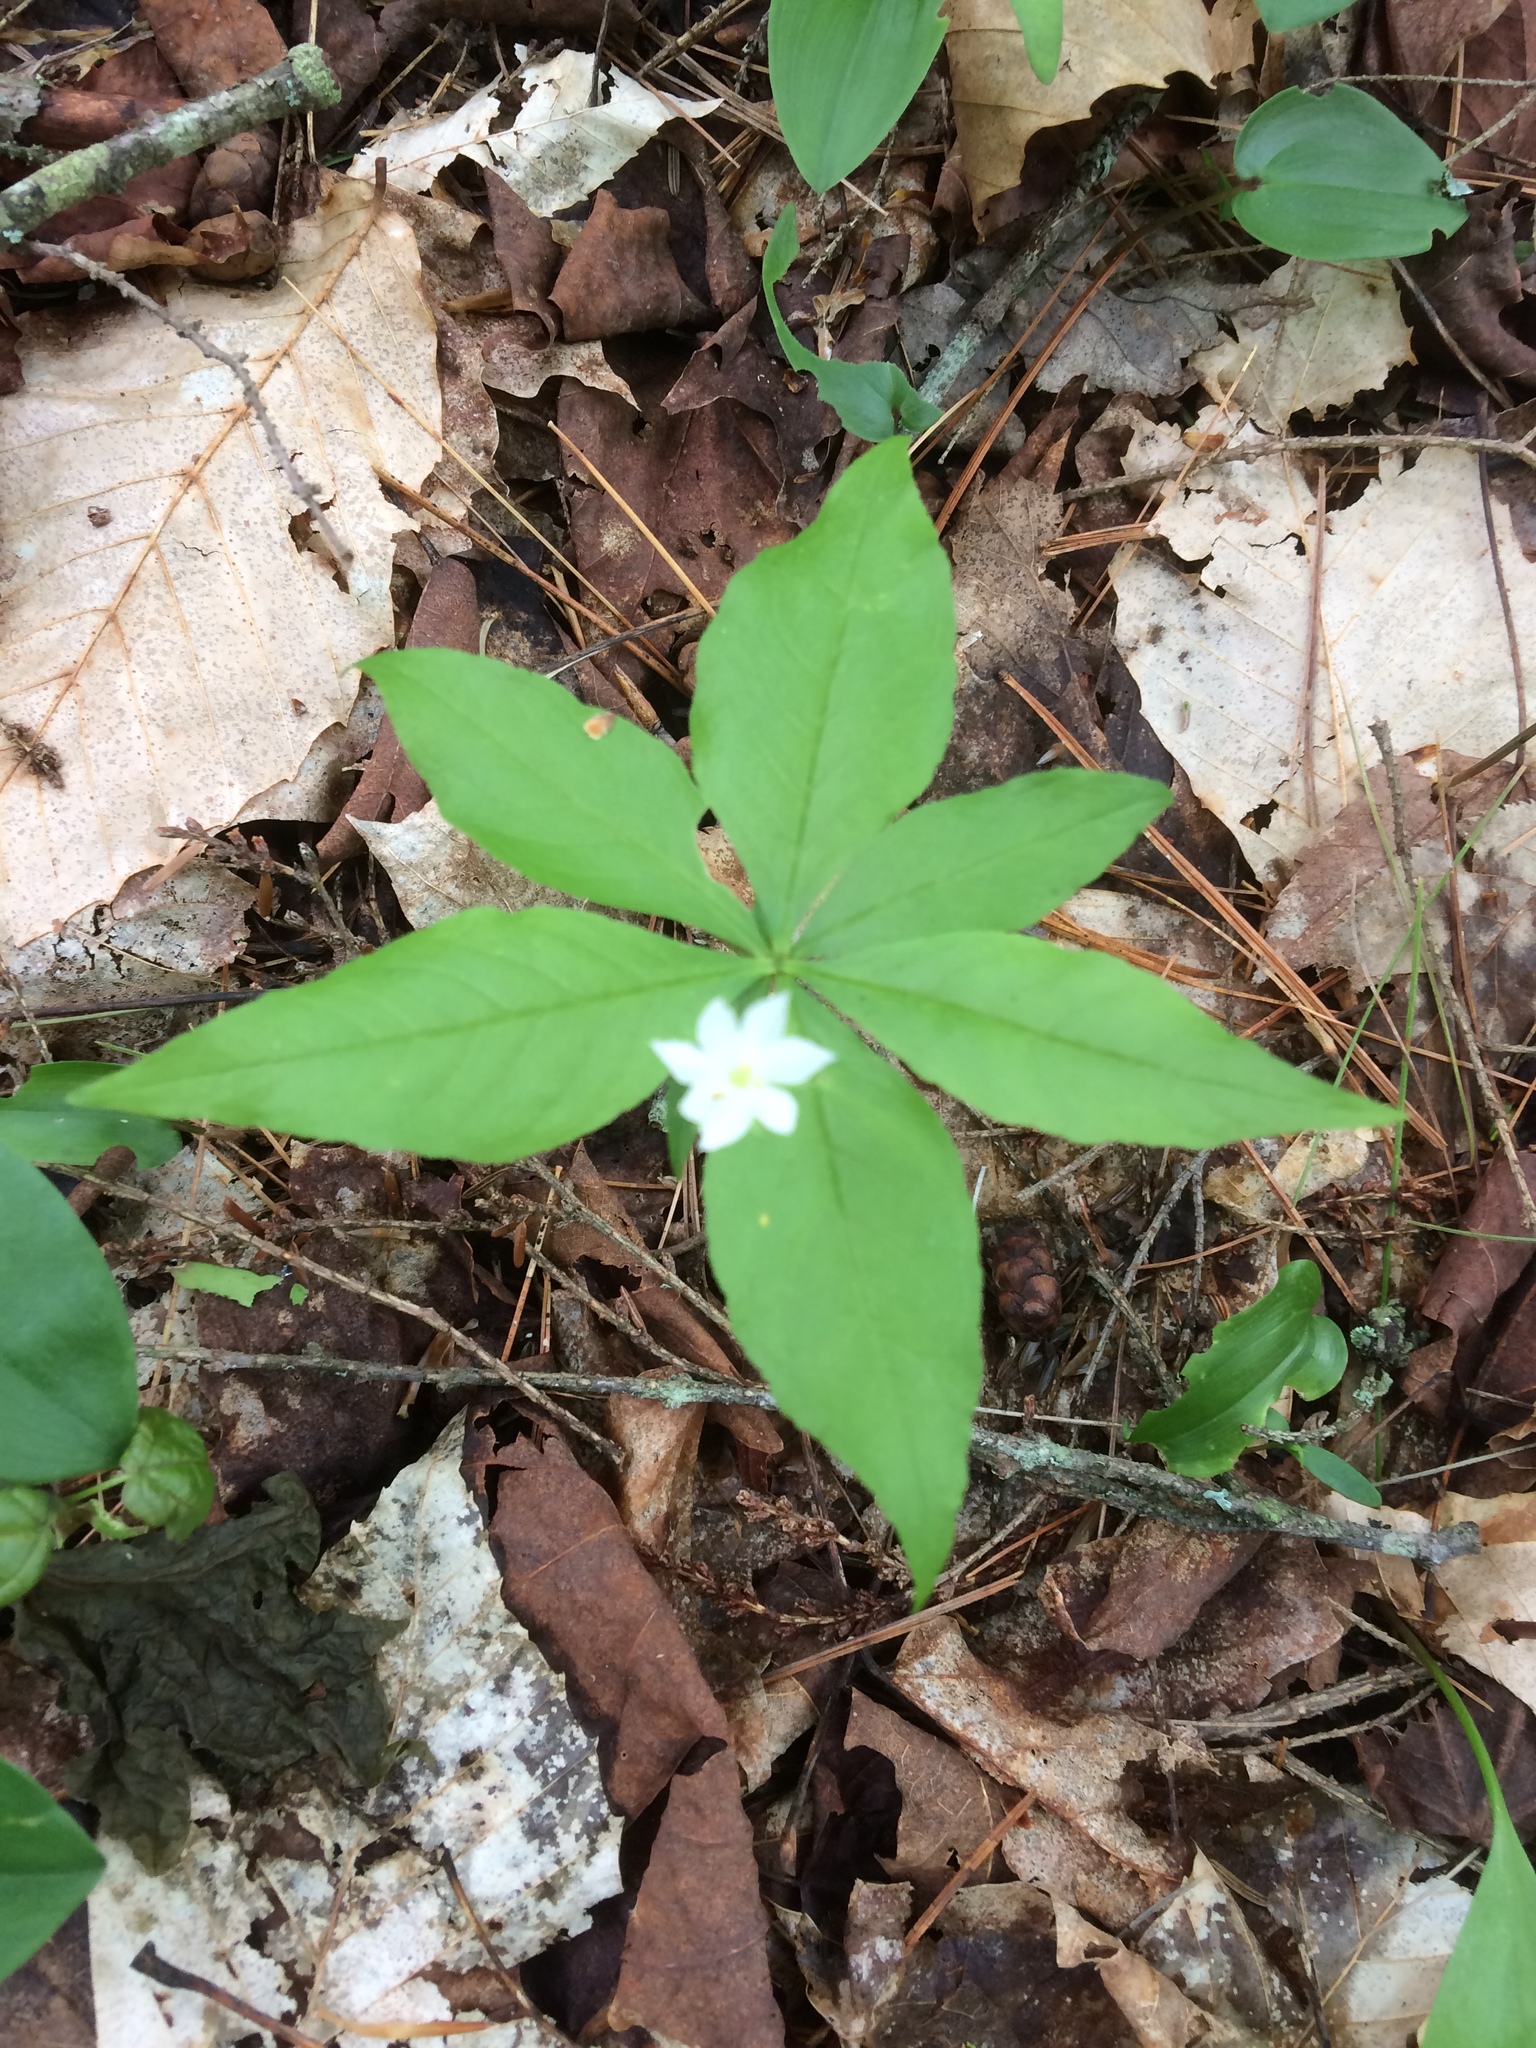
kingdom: Plantae
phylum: Tracheophyta
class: Magnoliopsida
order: Ericales
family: Primulaceae
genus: Lysimachia
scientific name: Lysimachia borealis
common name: American starflower
